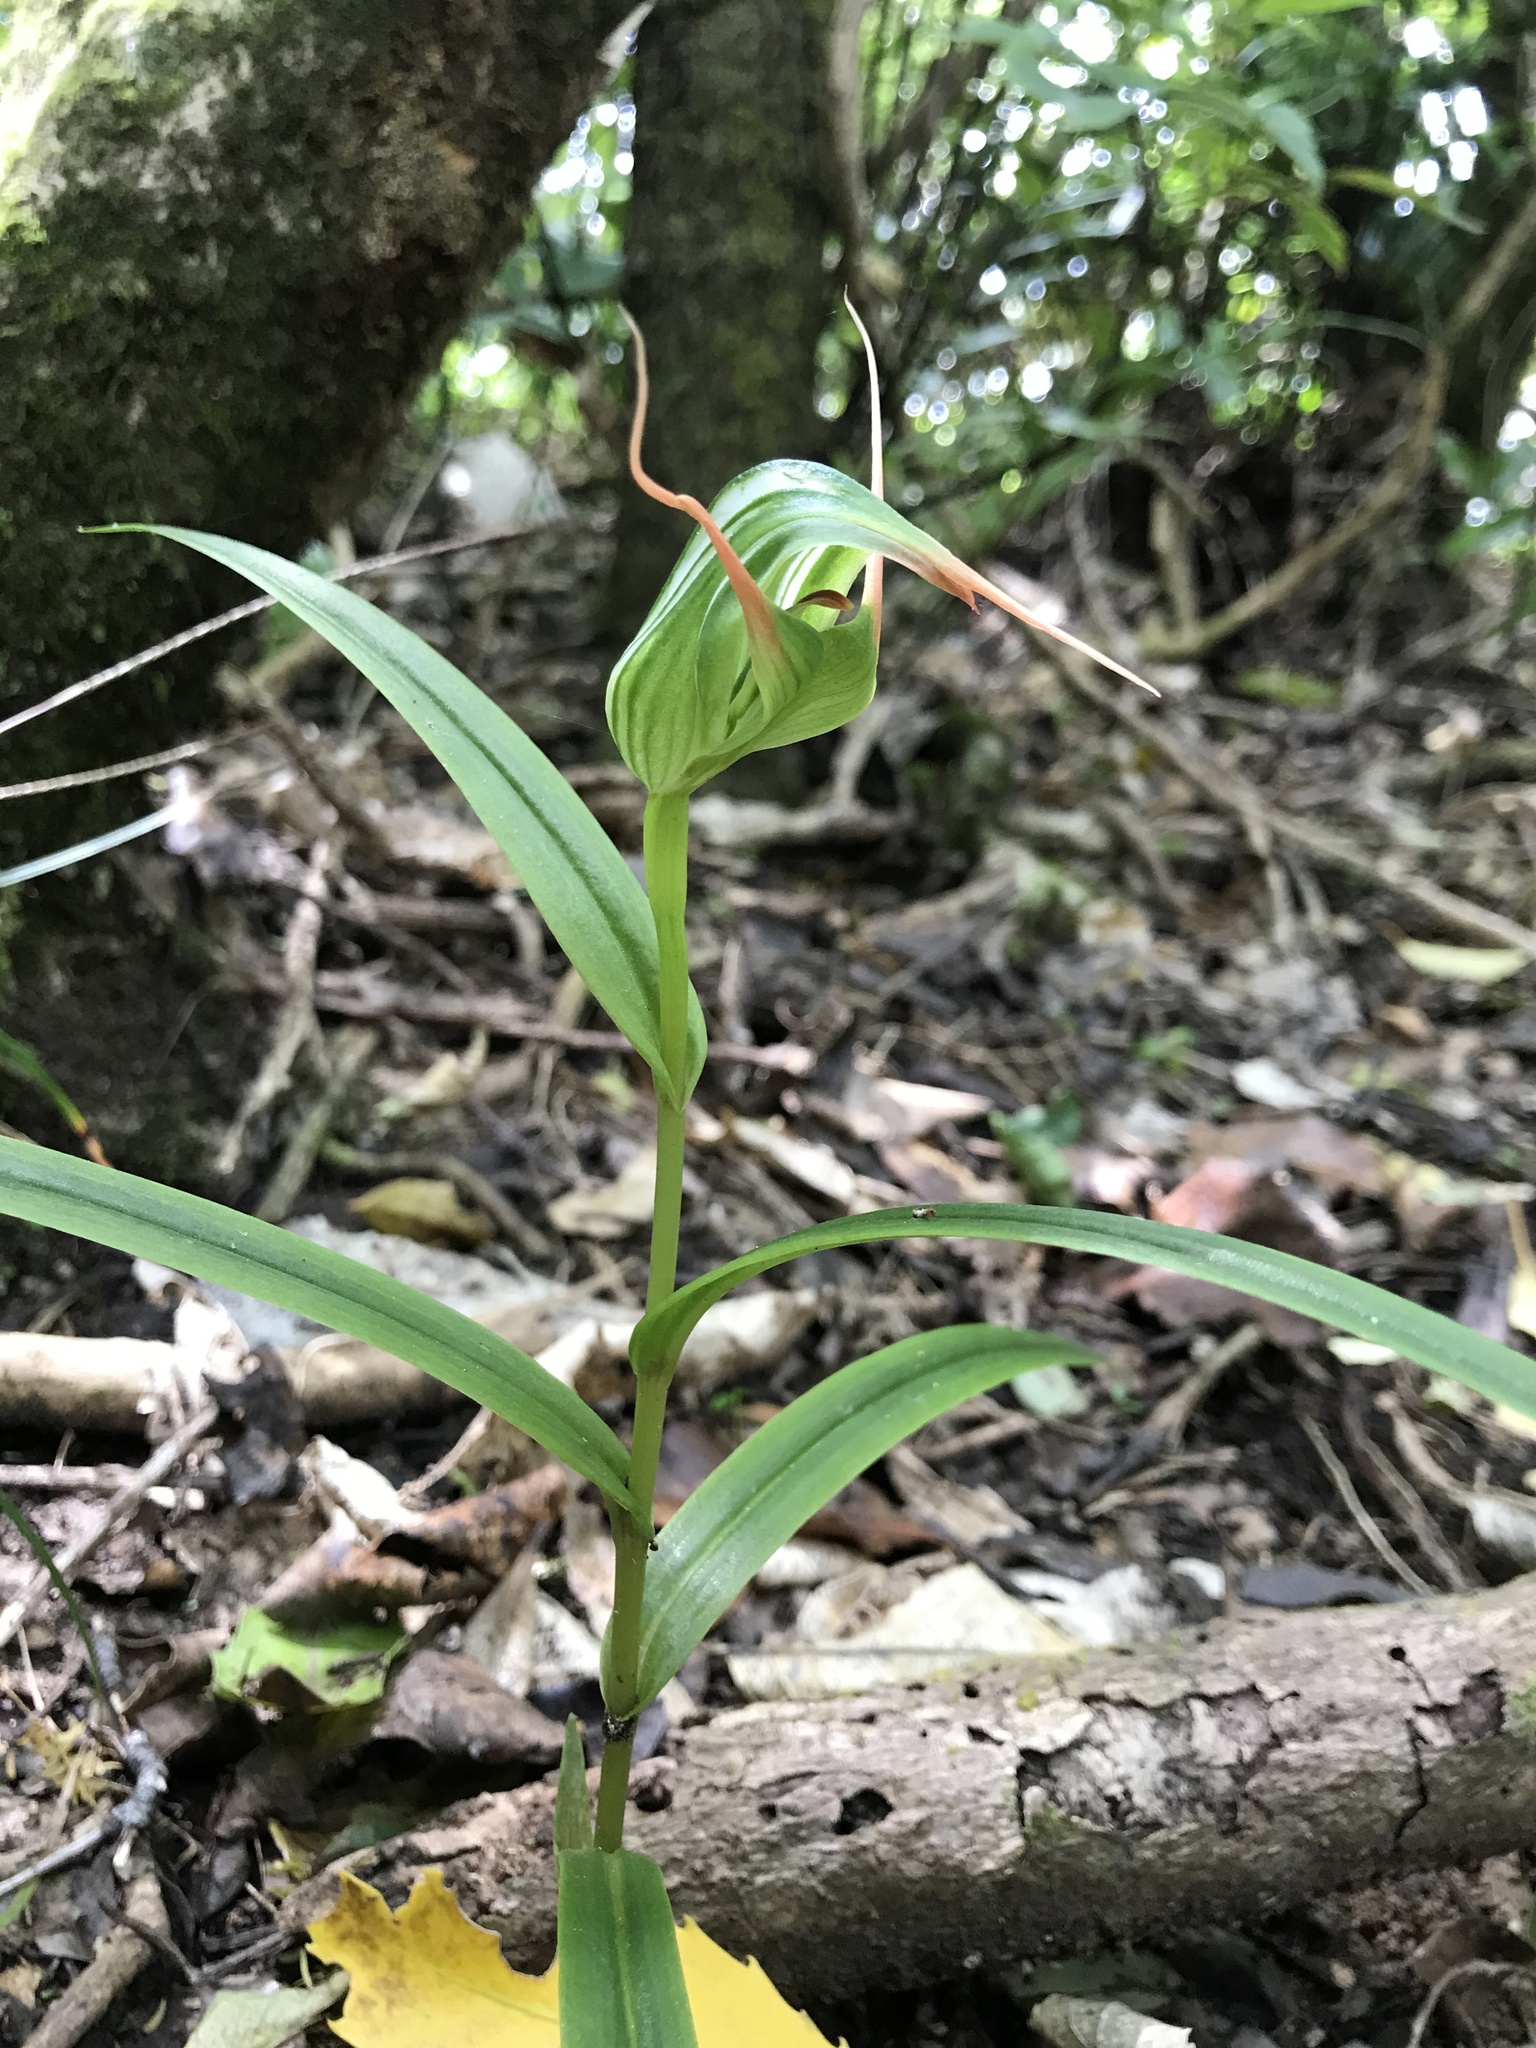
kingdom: Plantae
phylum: Tracheophyta
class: Liliopsida
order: Asparagales
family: Orchidaceae
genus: Pterostylis
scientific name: Pterostylis banksii
